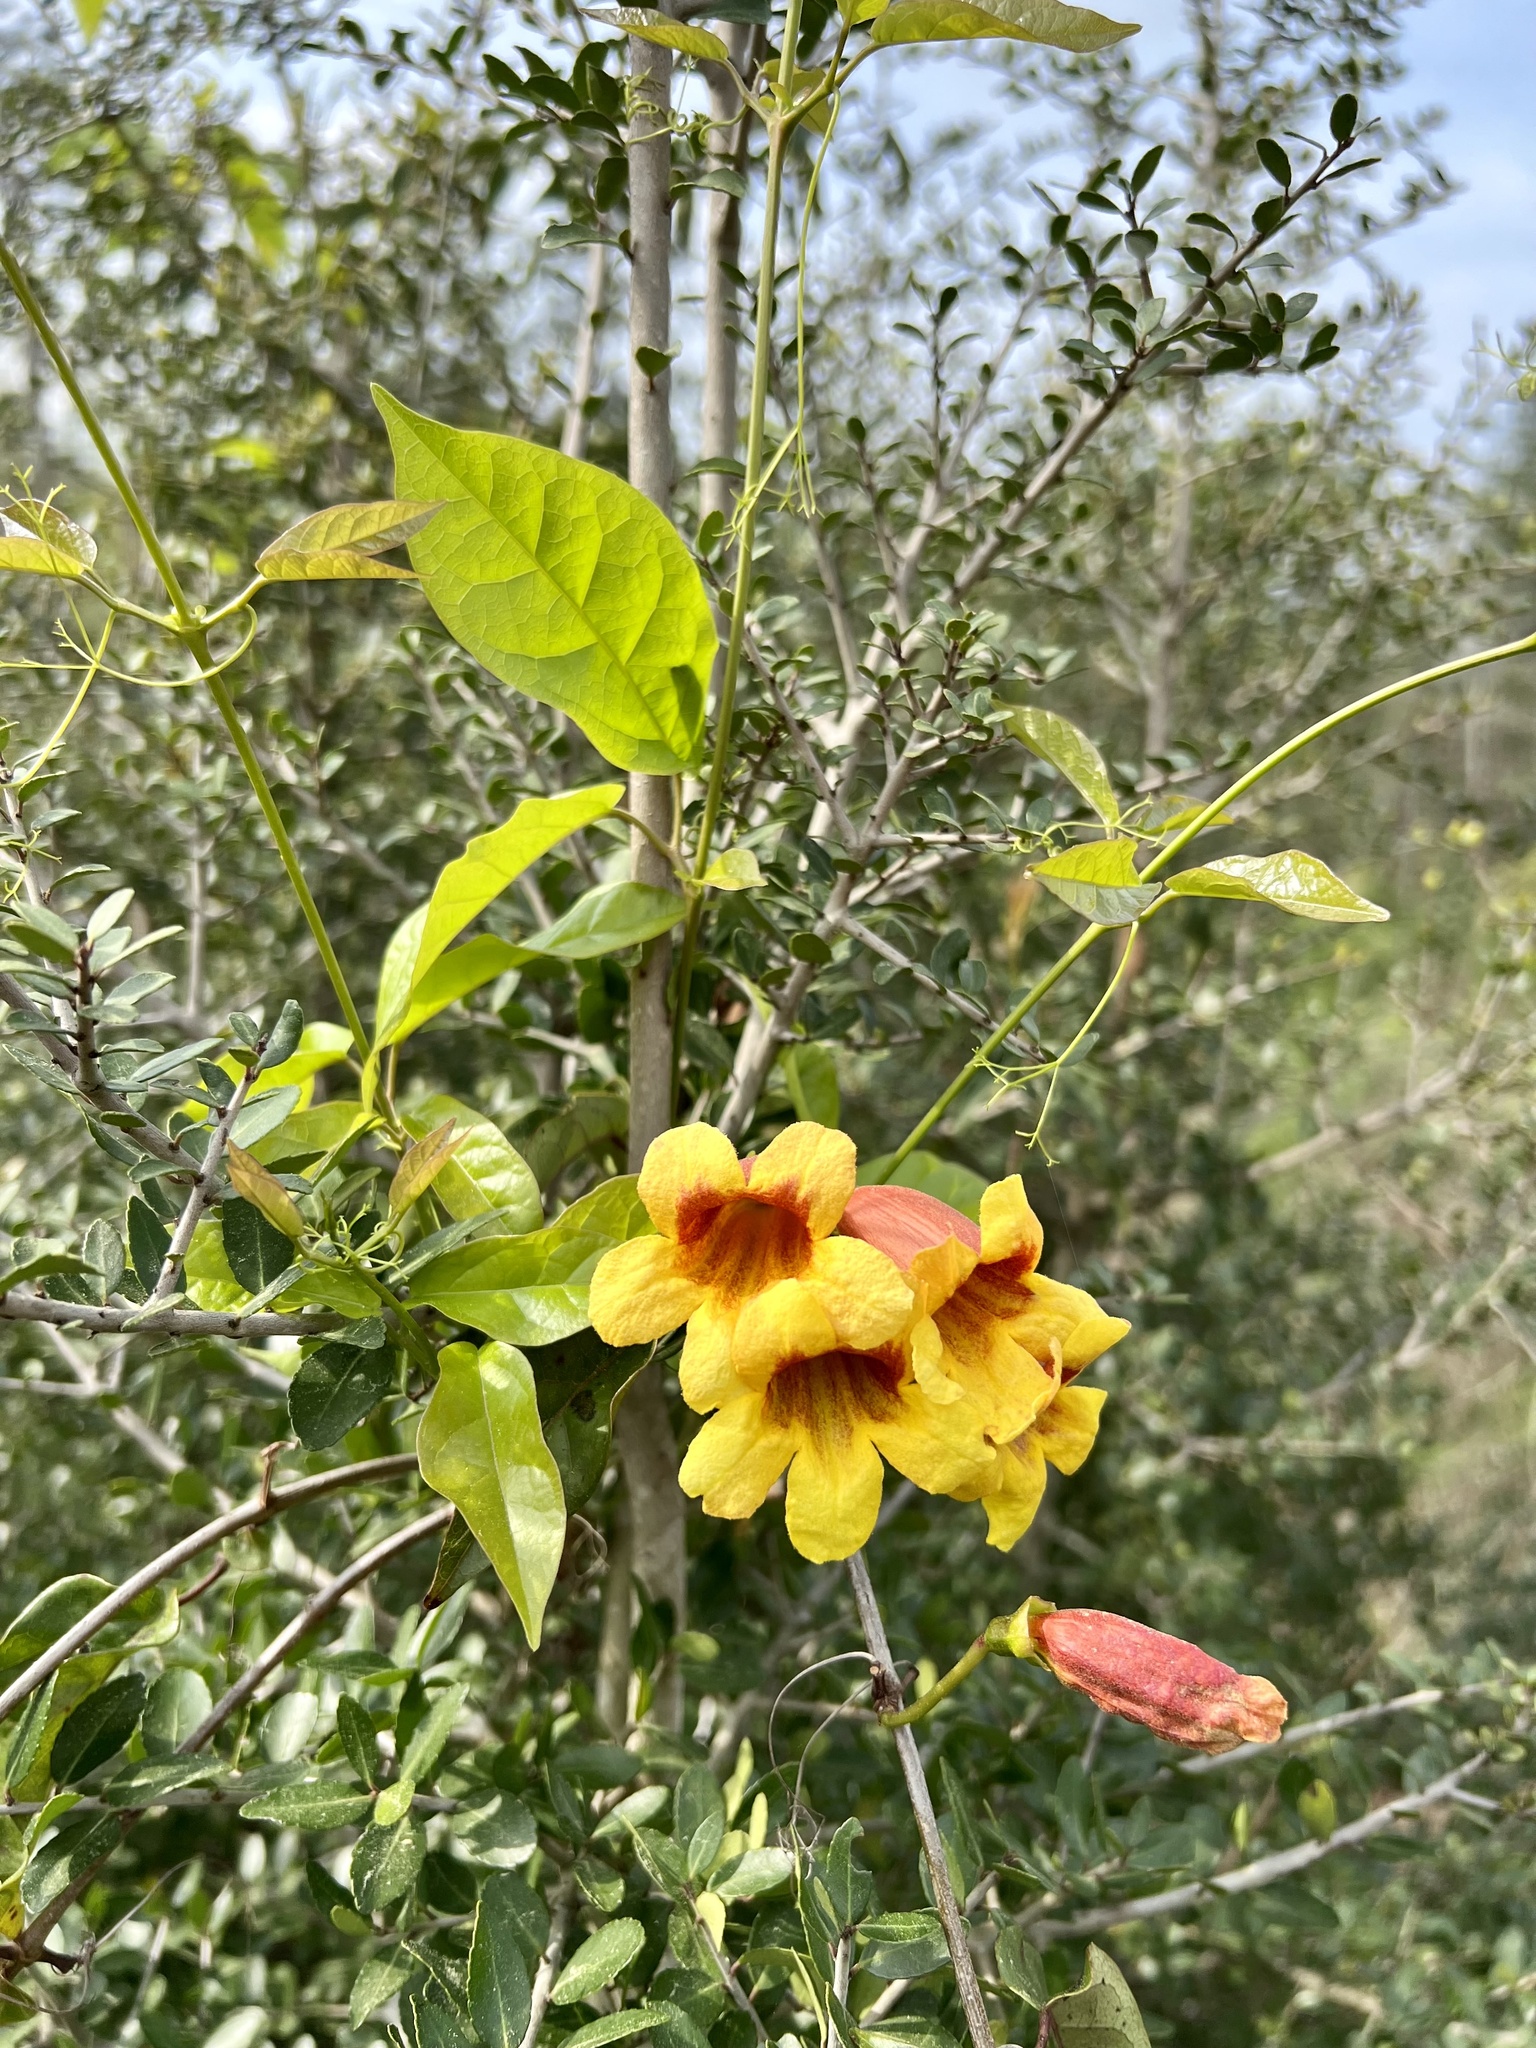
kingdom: Plantae
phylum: Tracheophyta
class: Magnoliopsida
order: Lamiales
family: Bignoniaceae
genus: Bignonia
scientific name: Bignonia capreolata
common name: Crossvine
